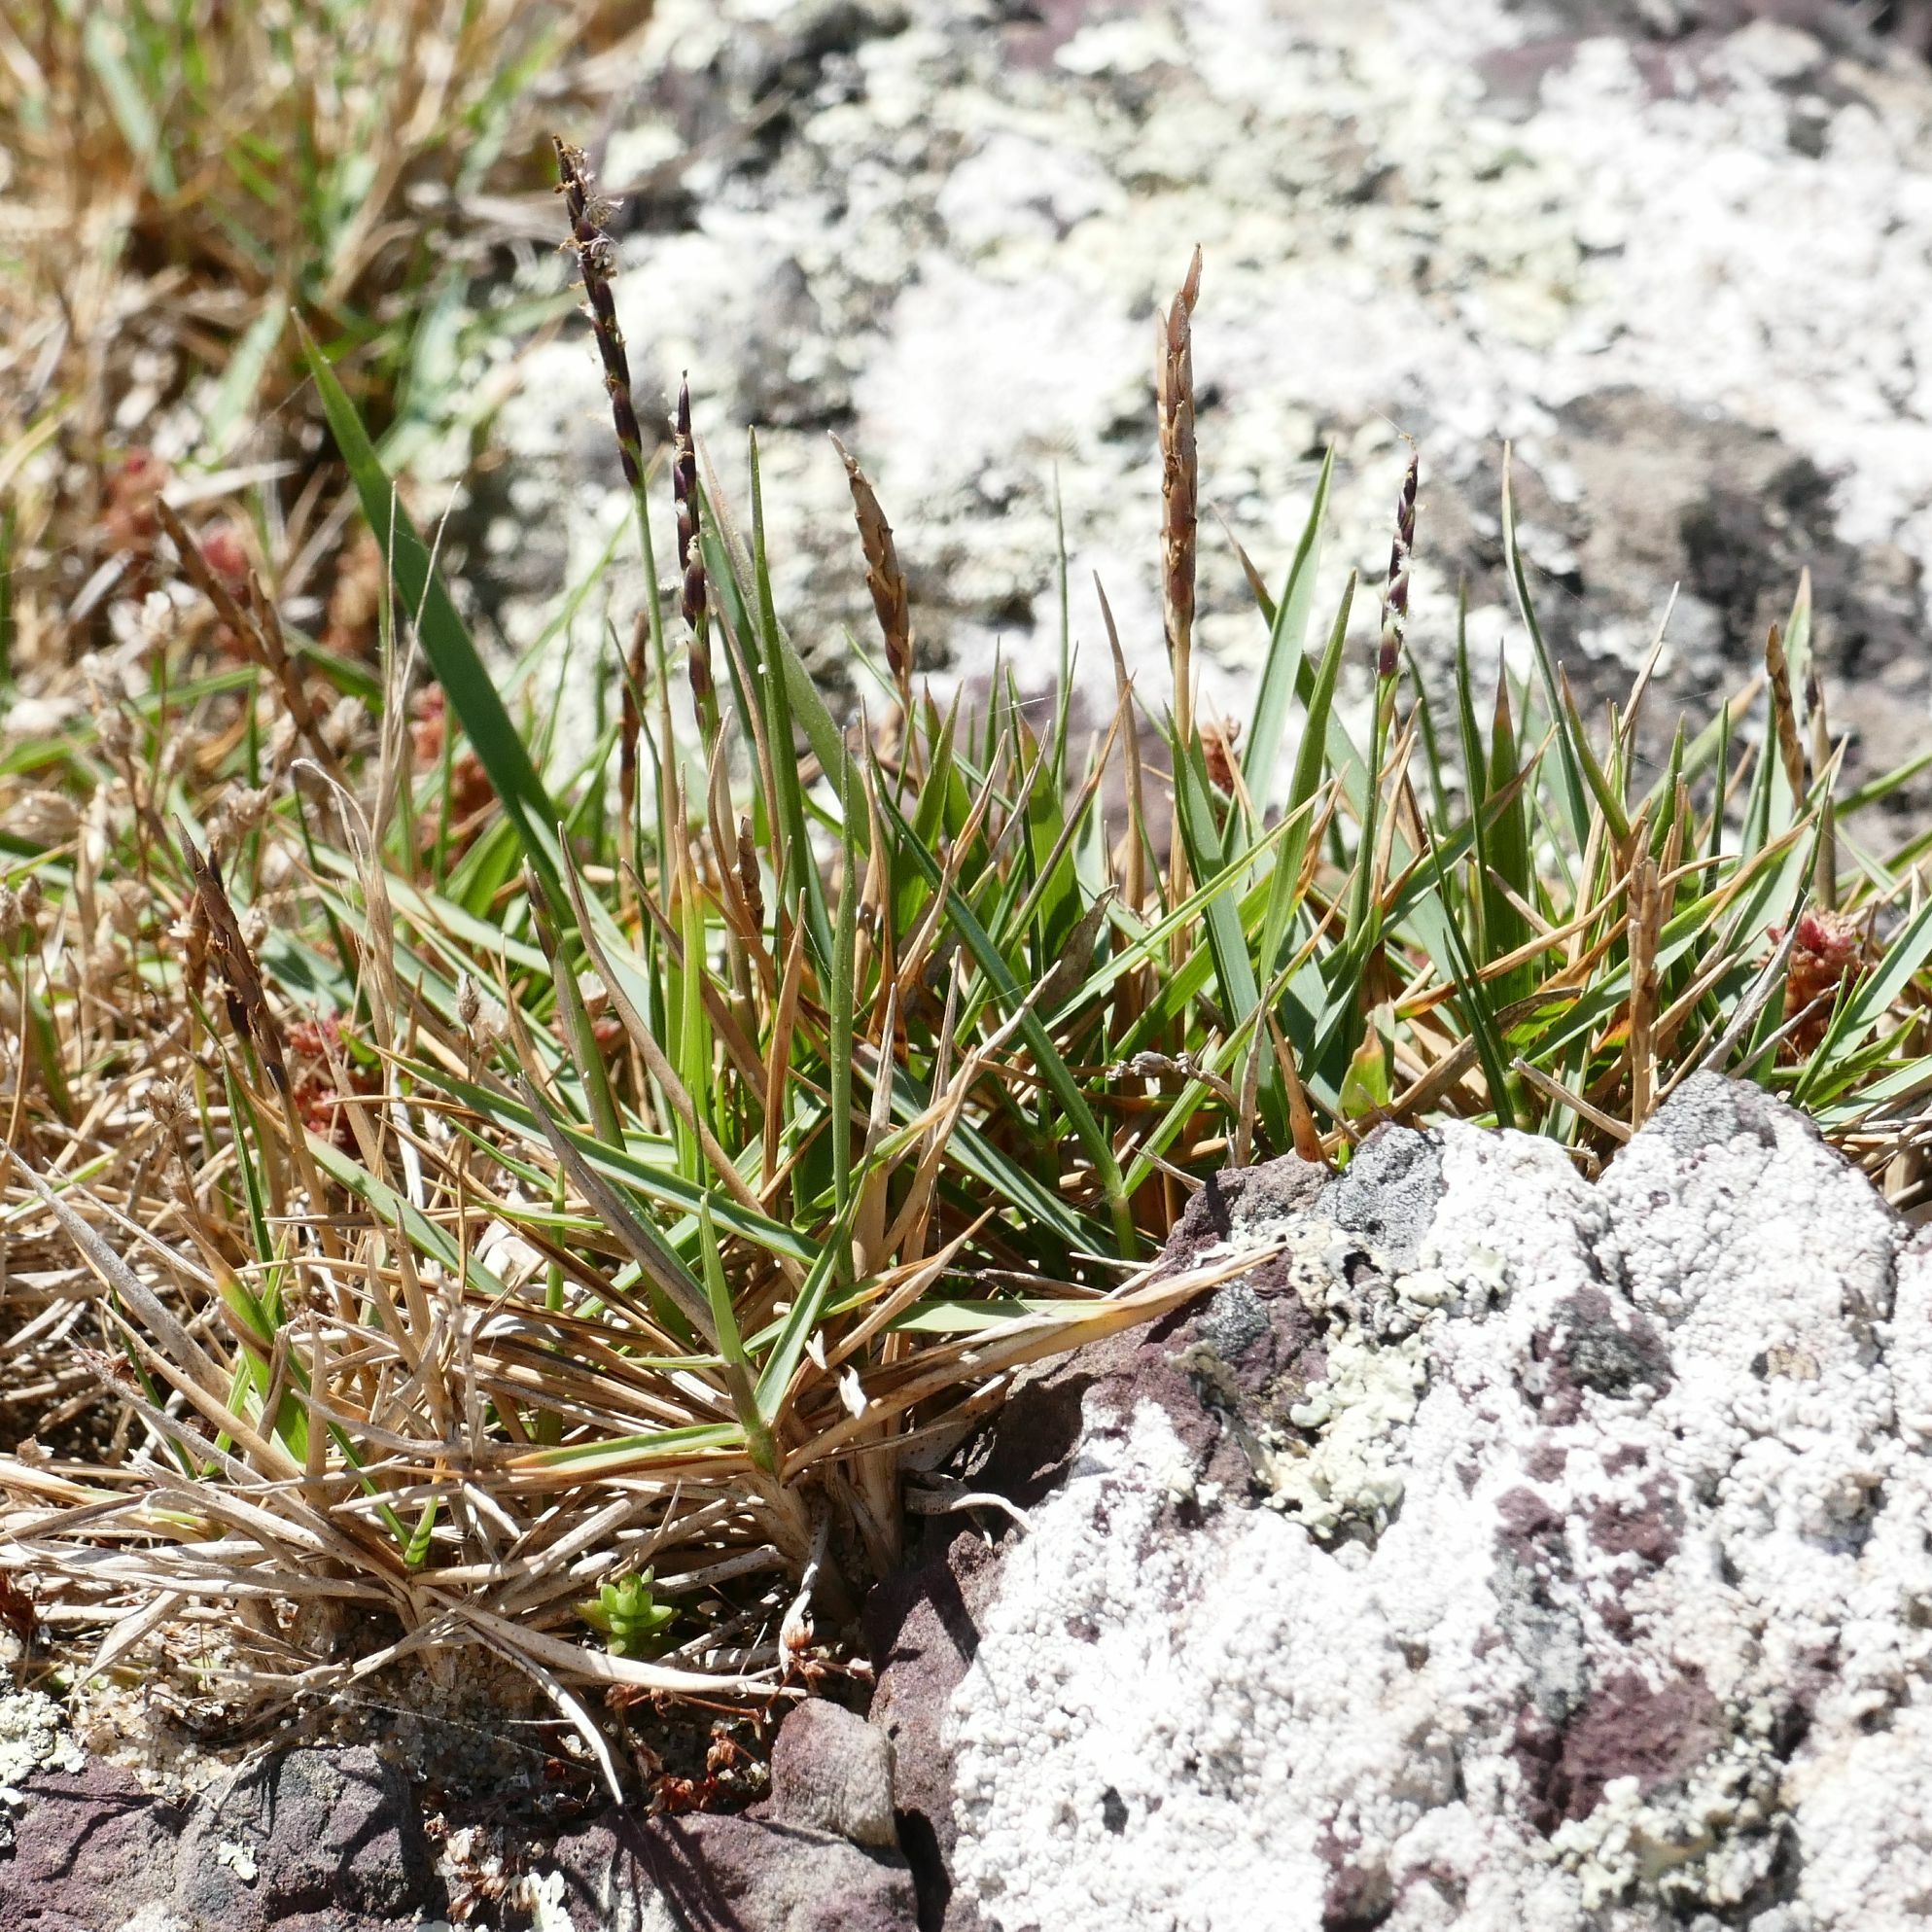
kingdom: Plantae
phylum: Tracheophyta
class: Liliopsida
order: Poales
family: Poaceae
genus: Zoysia
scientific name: Zoysia macrantha
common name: Korean lawn grass
